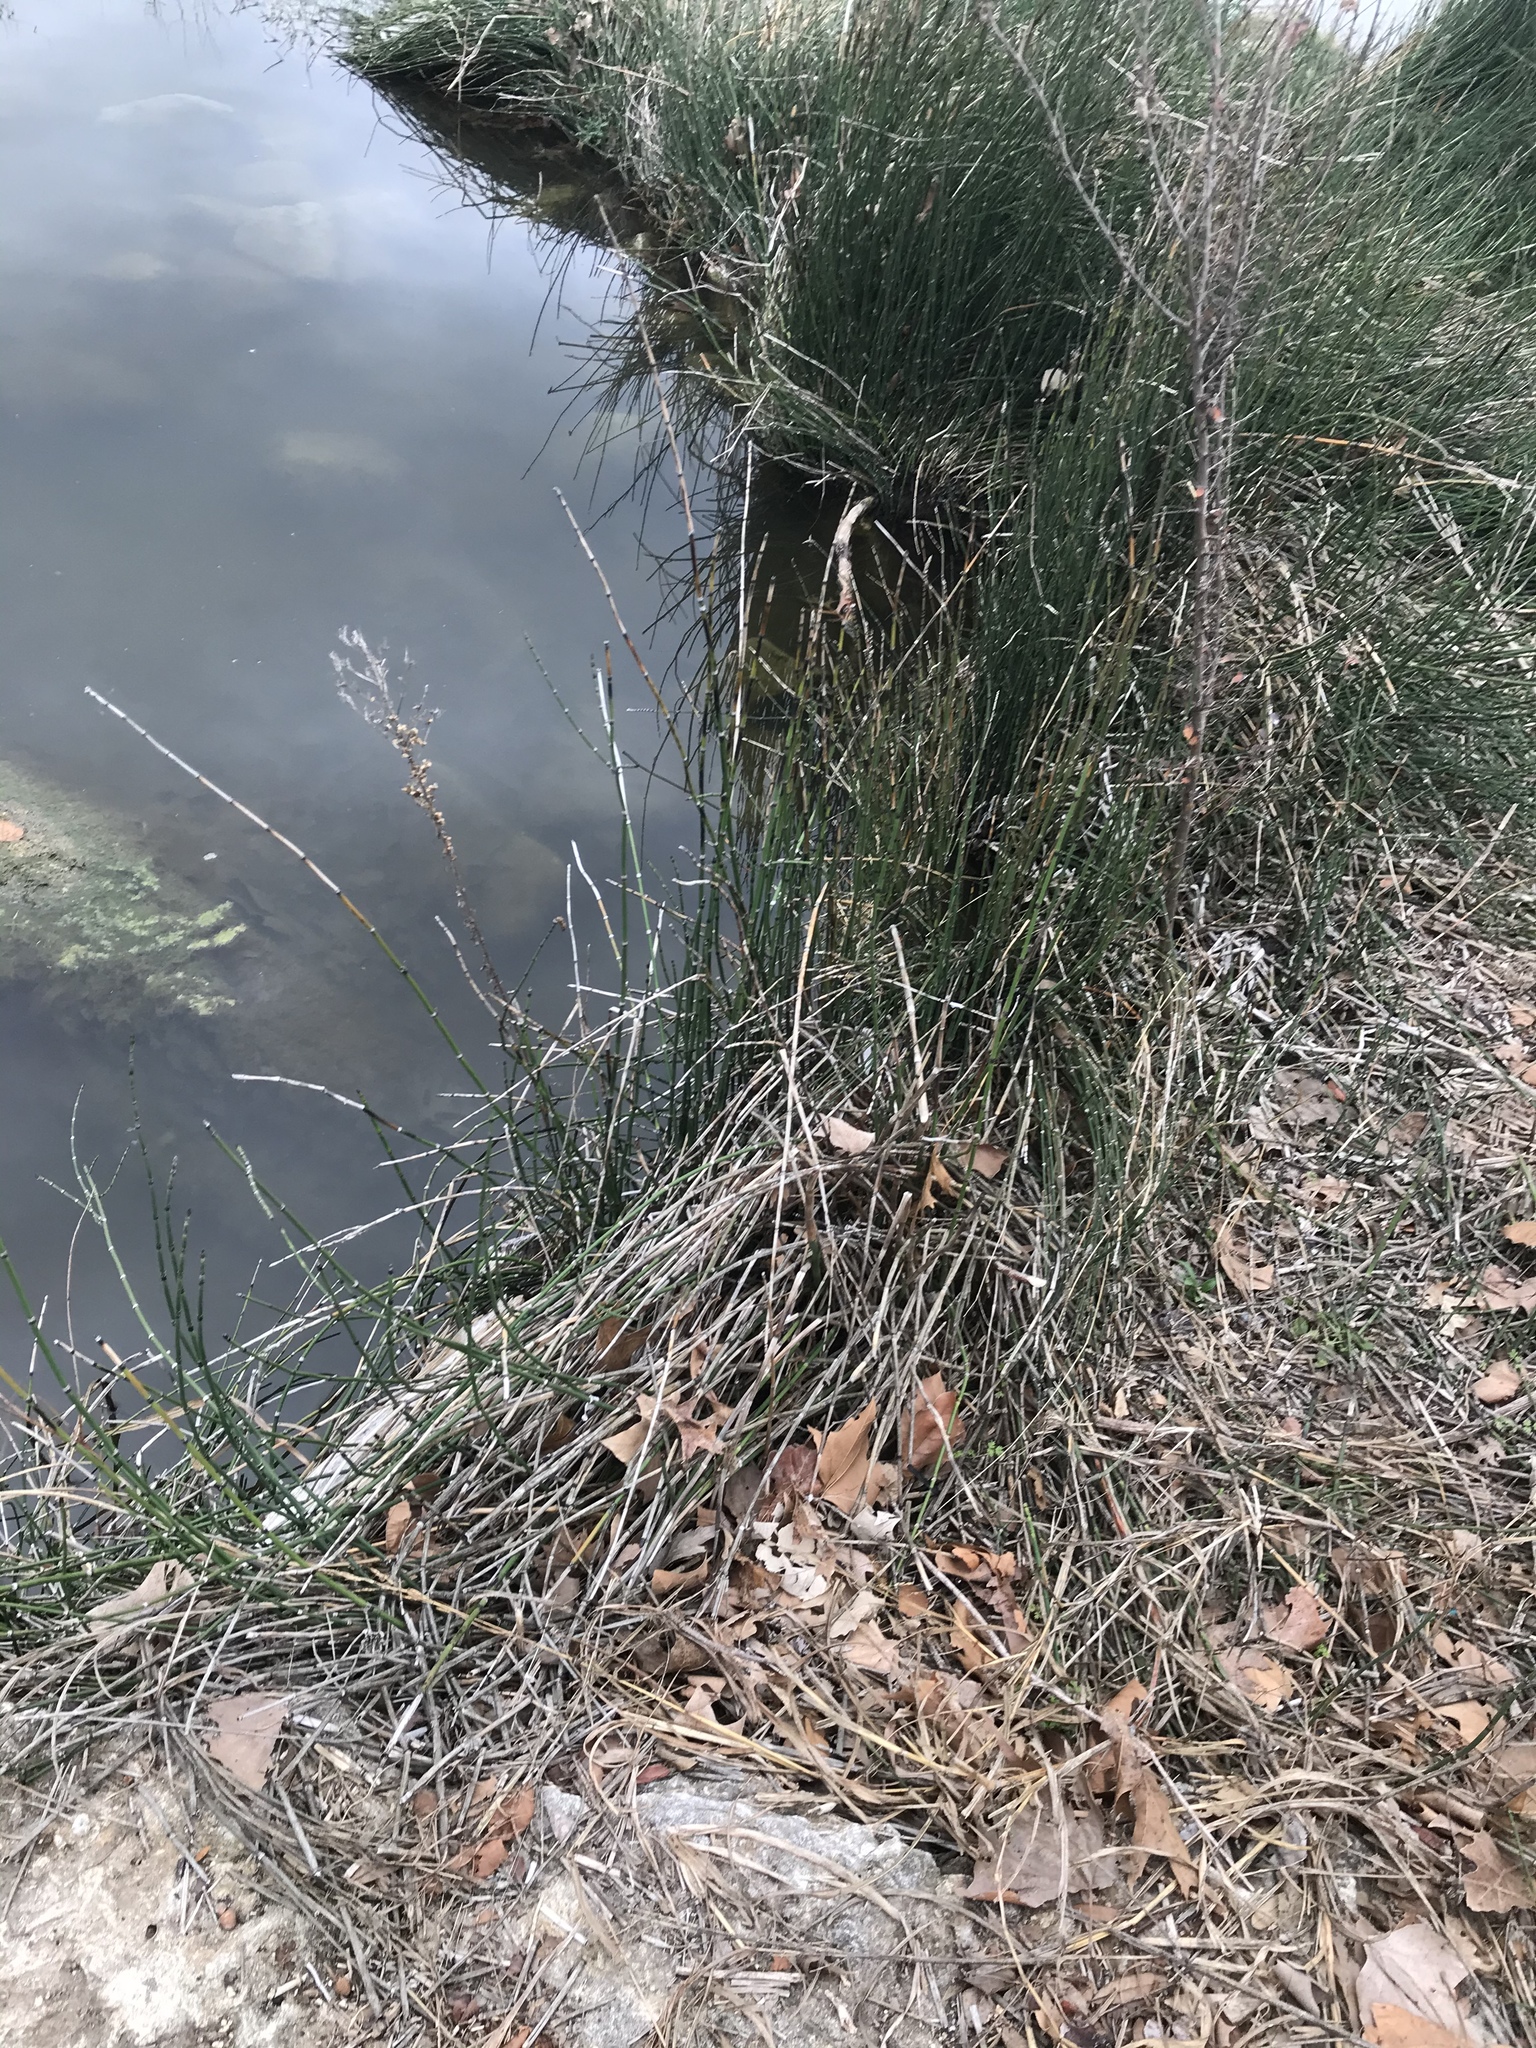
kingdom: Plantae
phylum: Tracheophyta
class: Polypodiopsida
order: Equisetales
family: Equisetaceae
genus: Equisetum
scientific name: Equisetum praealtum
